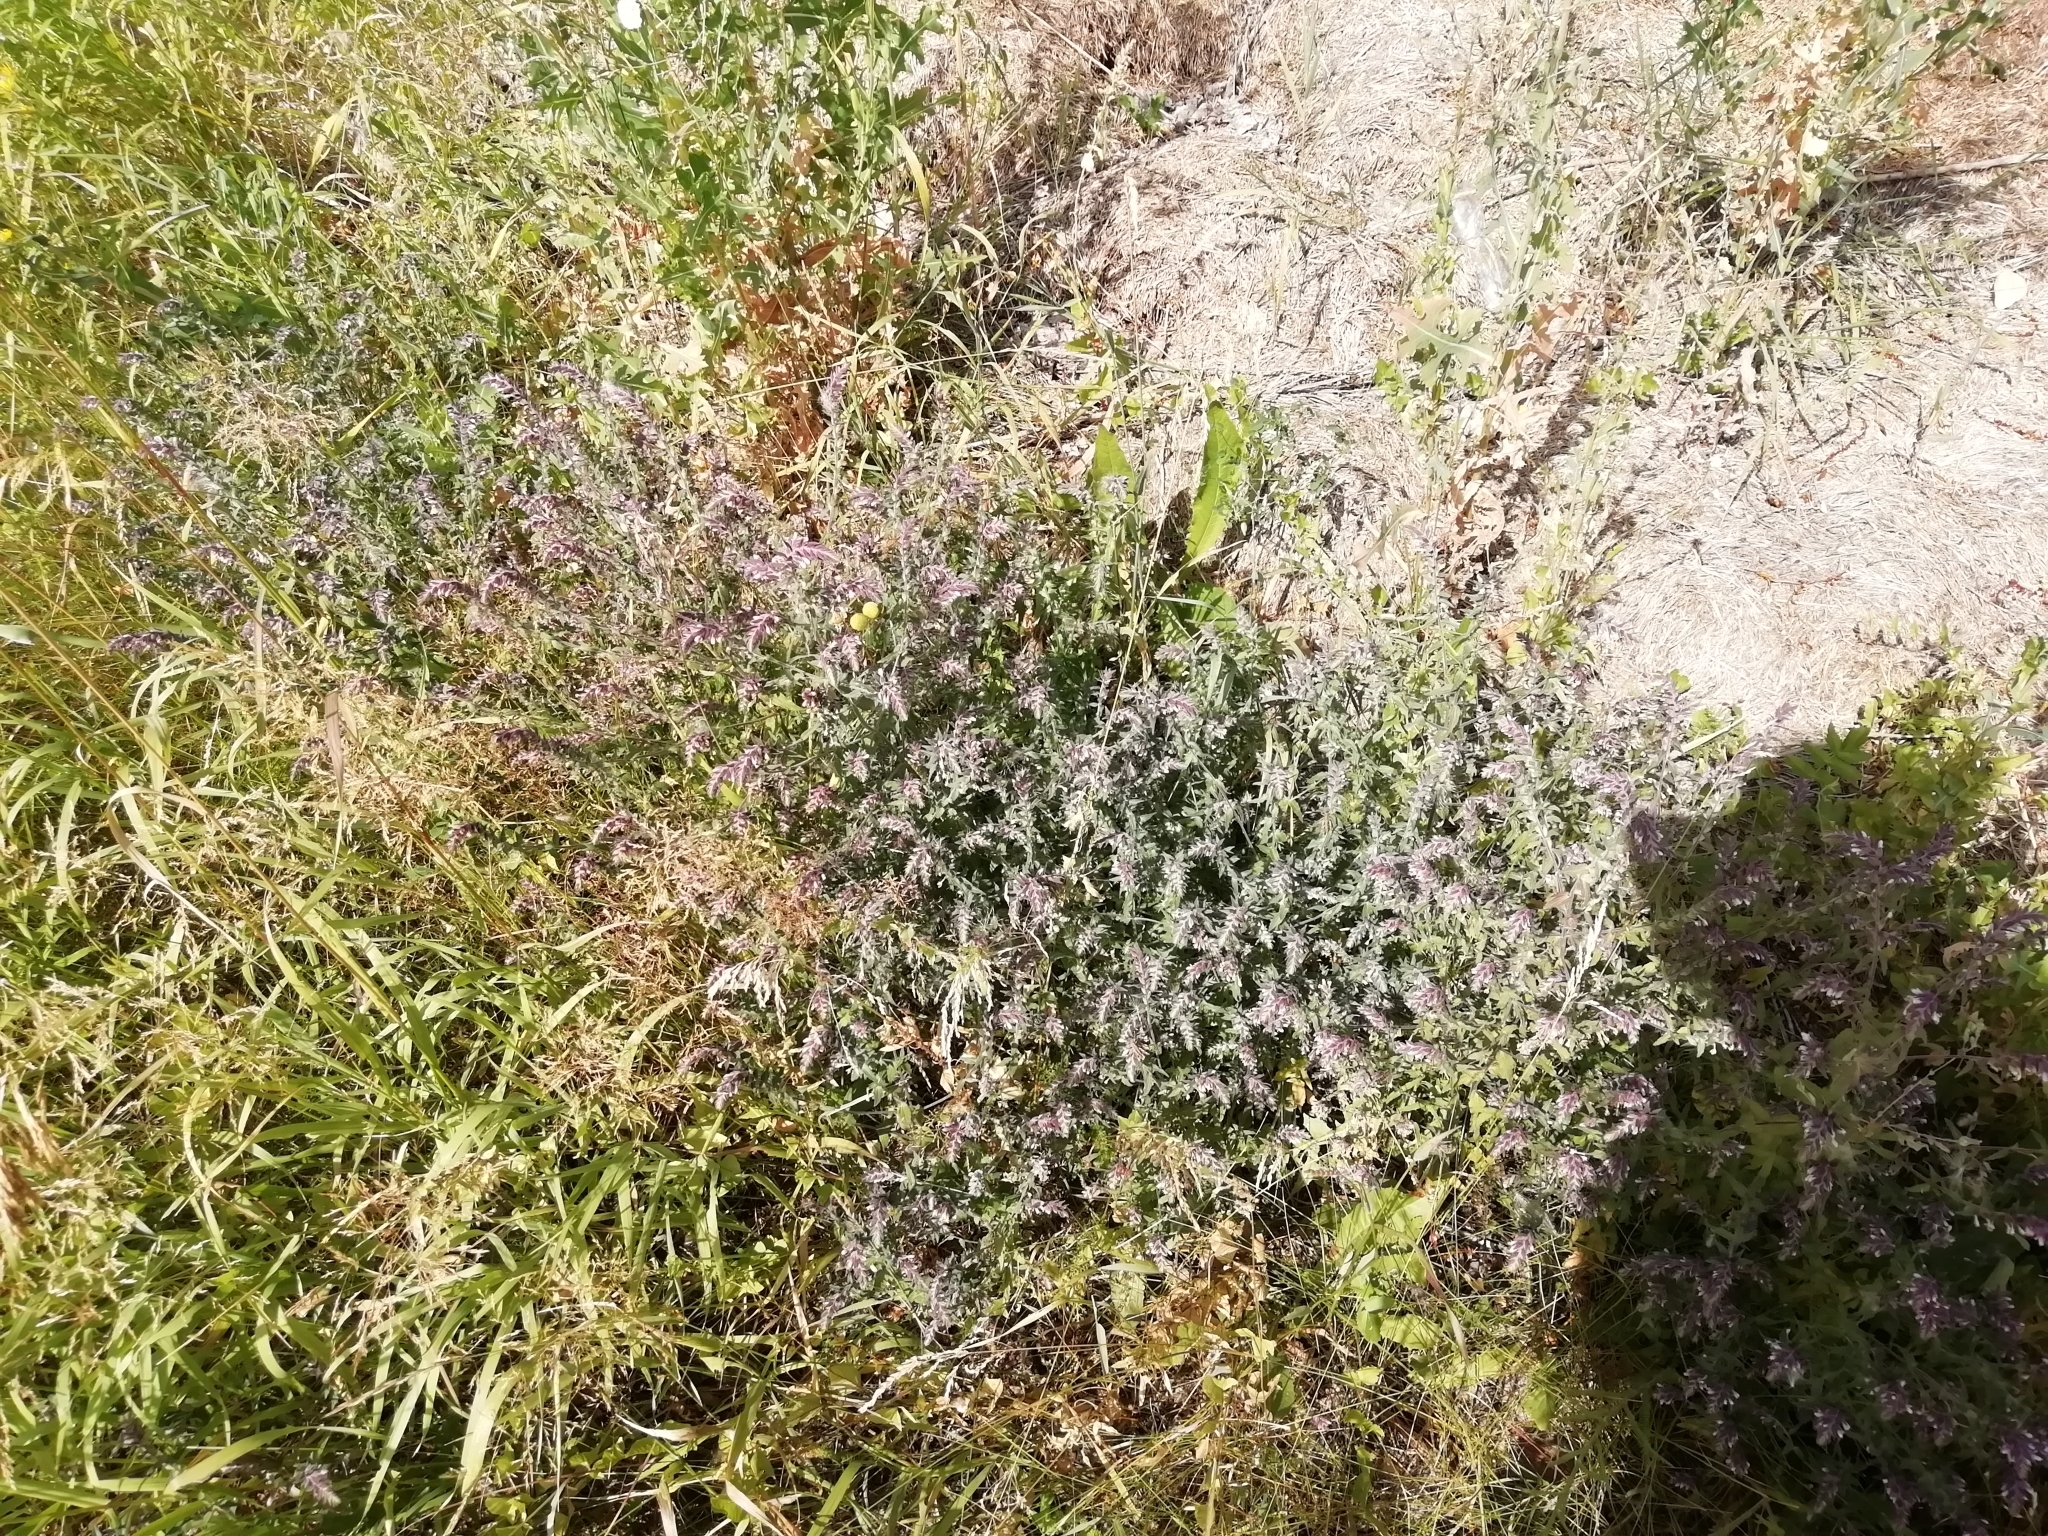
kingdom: Plantae
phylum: Tracheophyta
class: Magnoliopsida
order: Lamiales
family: Orobanchaceae
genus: Odontites
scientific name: Odontites vulgaris
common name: Broomrape
